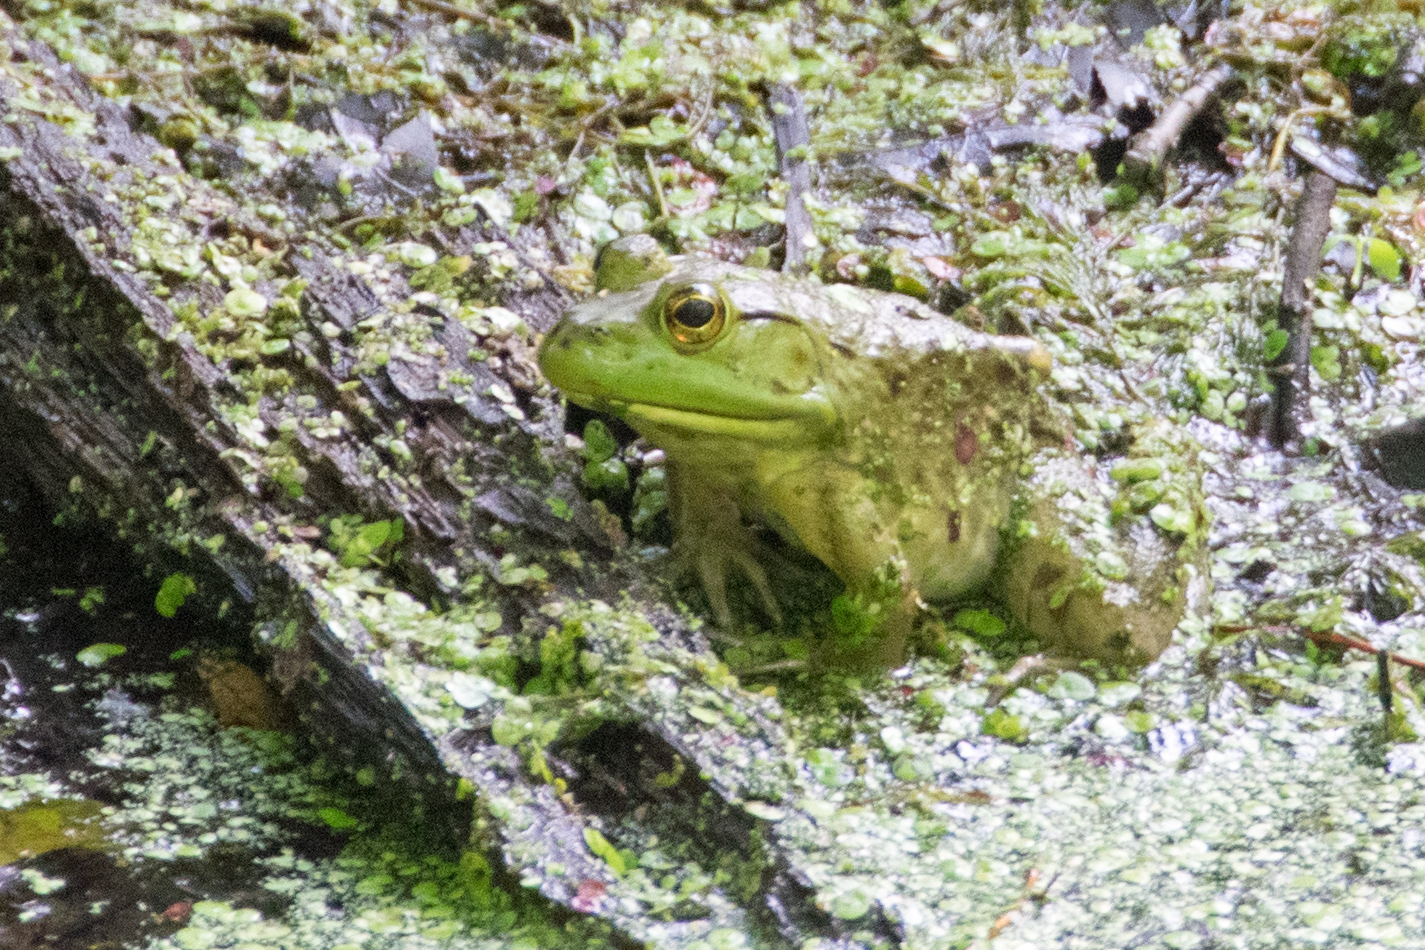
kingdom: Animalia
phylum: Chordata
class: Amphibia
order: Anura
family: Ranidae
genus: Lithobates
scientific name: Lithobates catesbeianus
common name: American bullfrog
